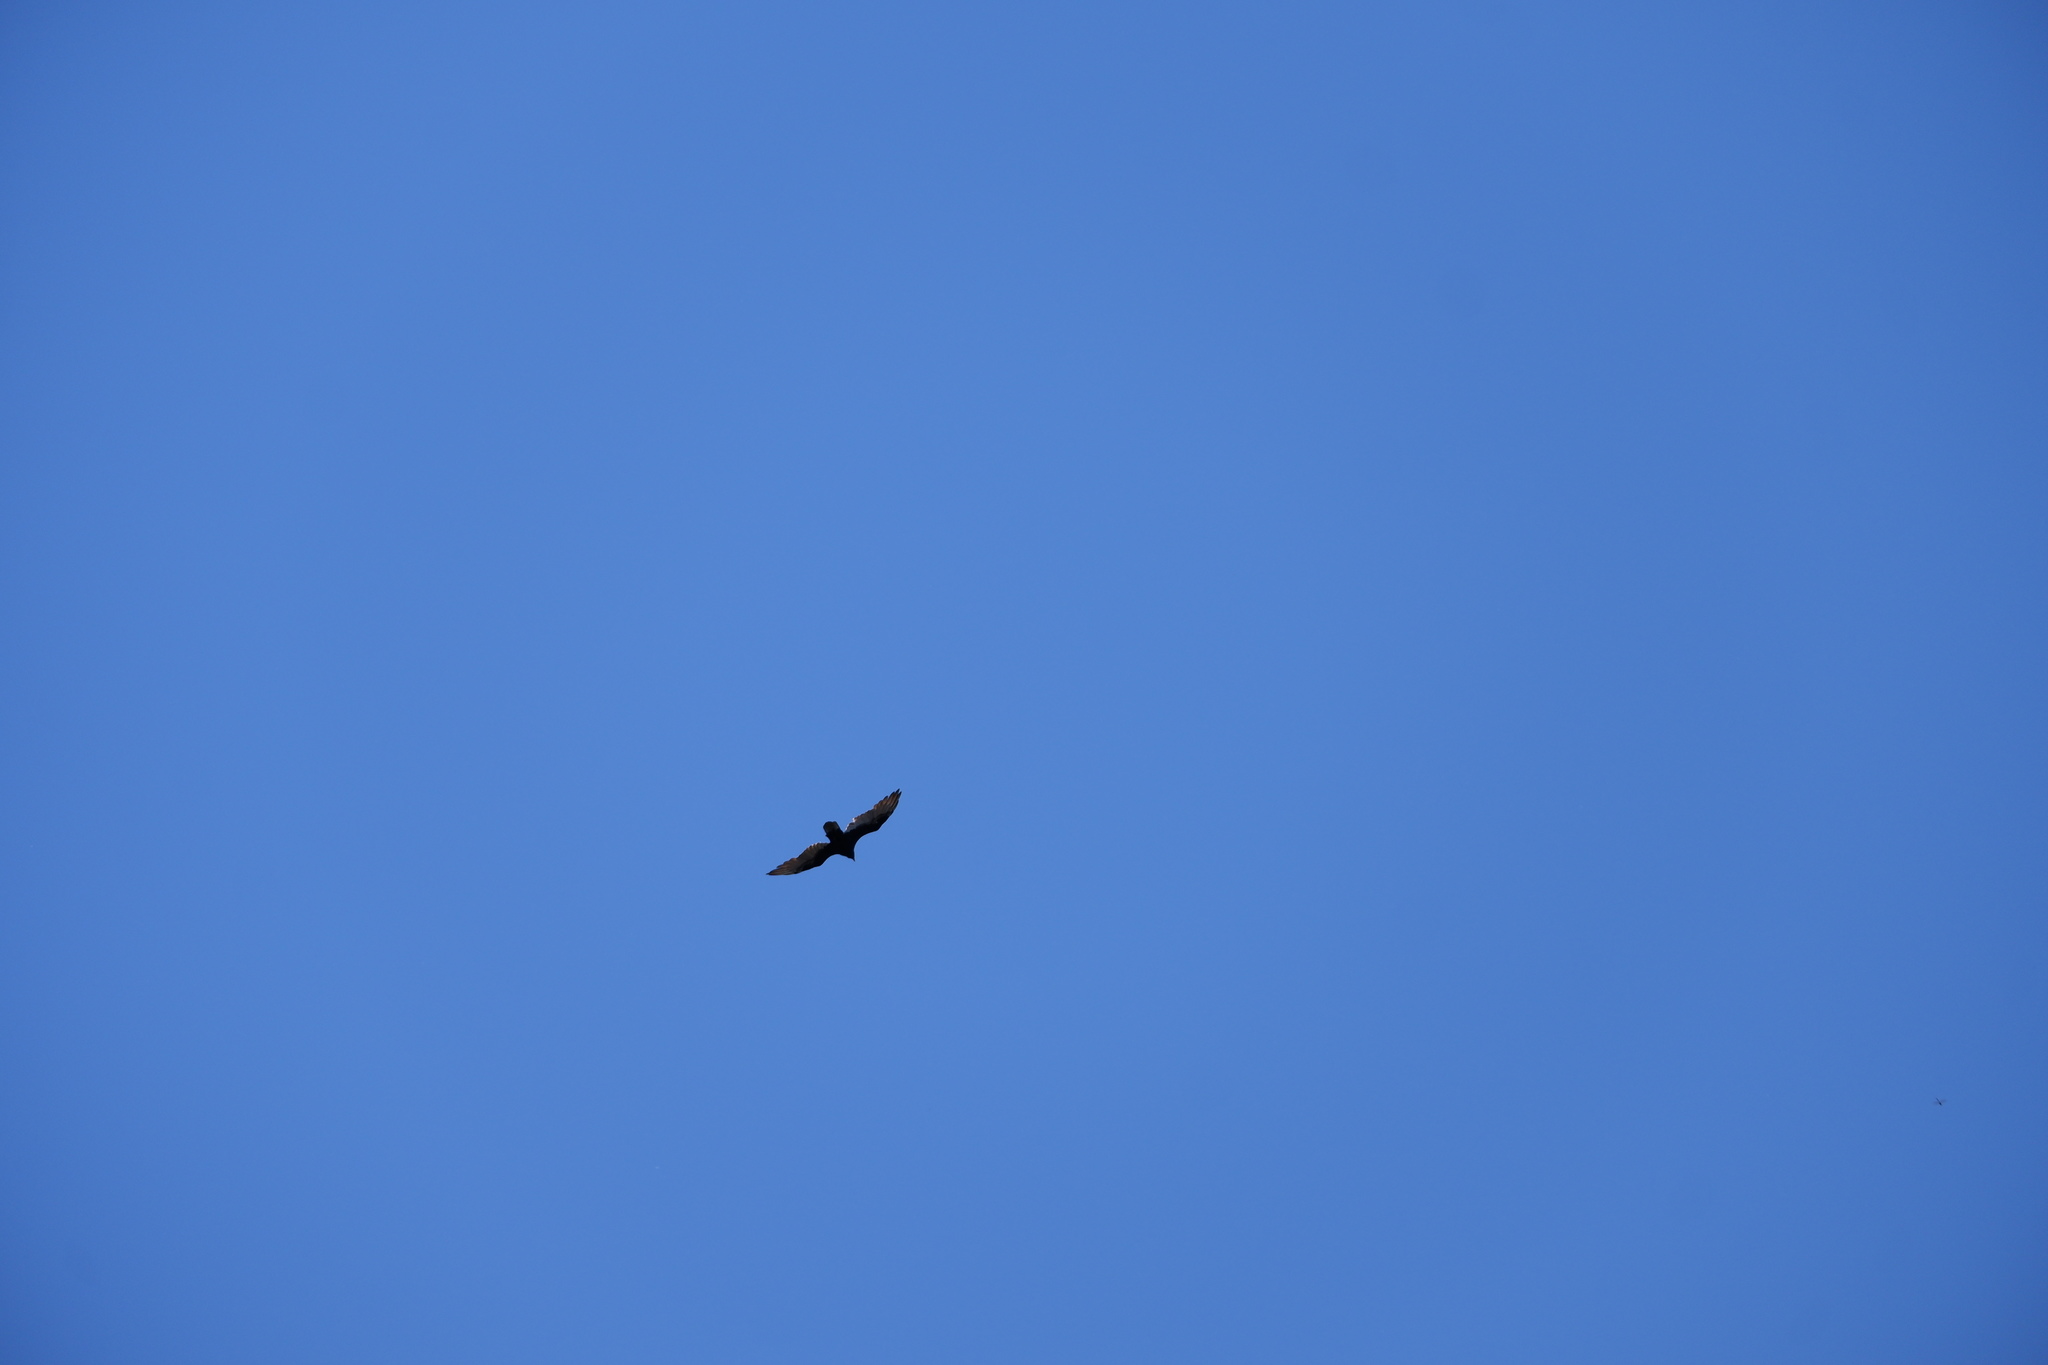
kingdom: Animalia
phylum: Chordata
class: Aves
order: Accipitriformes
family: Cathartidae
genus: Cathartes
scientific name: Cathartes aura
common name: Turkey vulture
